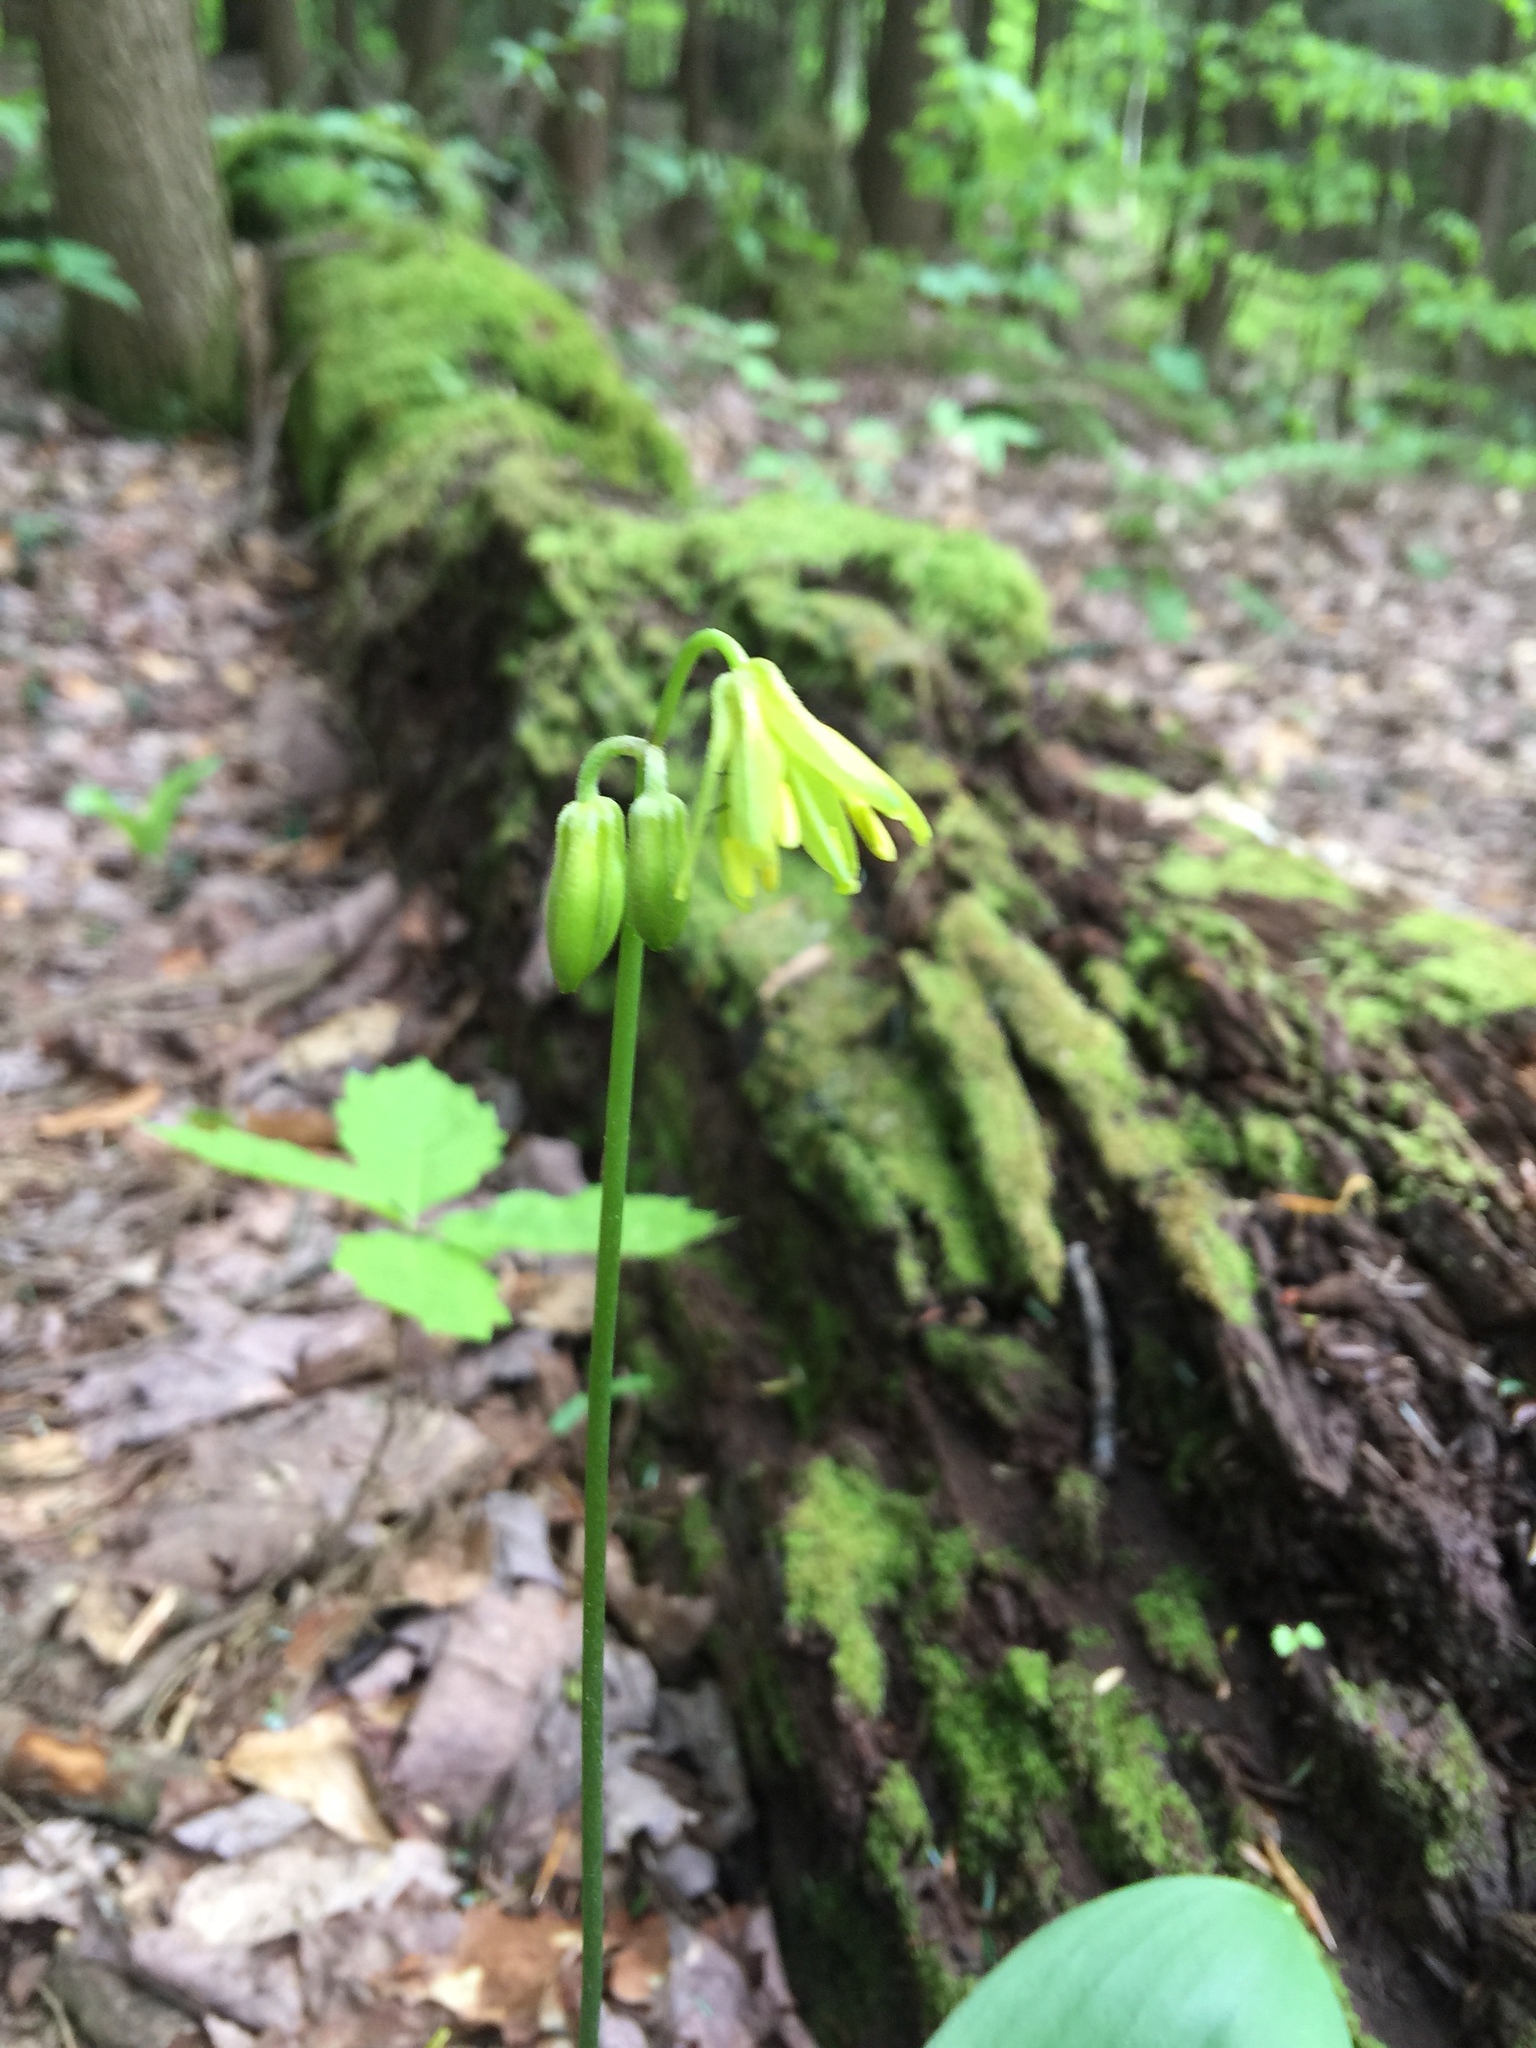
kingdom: Plantae
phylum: Tracheophyta
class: Liliopsida
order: Liliales
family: Liliaceae
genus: Clintonia
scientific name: Clintonia borealis
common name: Yellow clintonia
